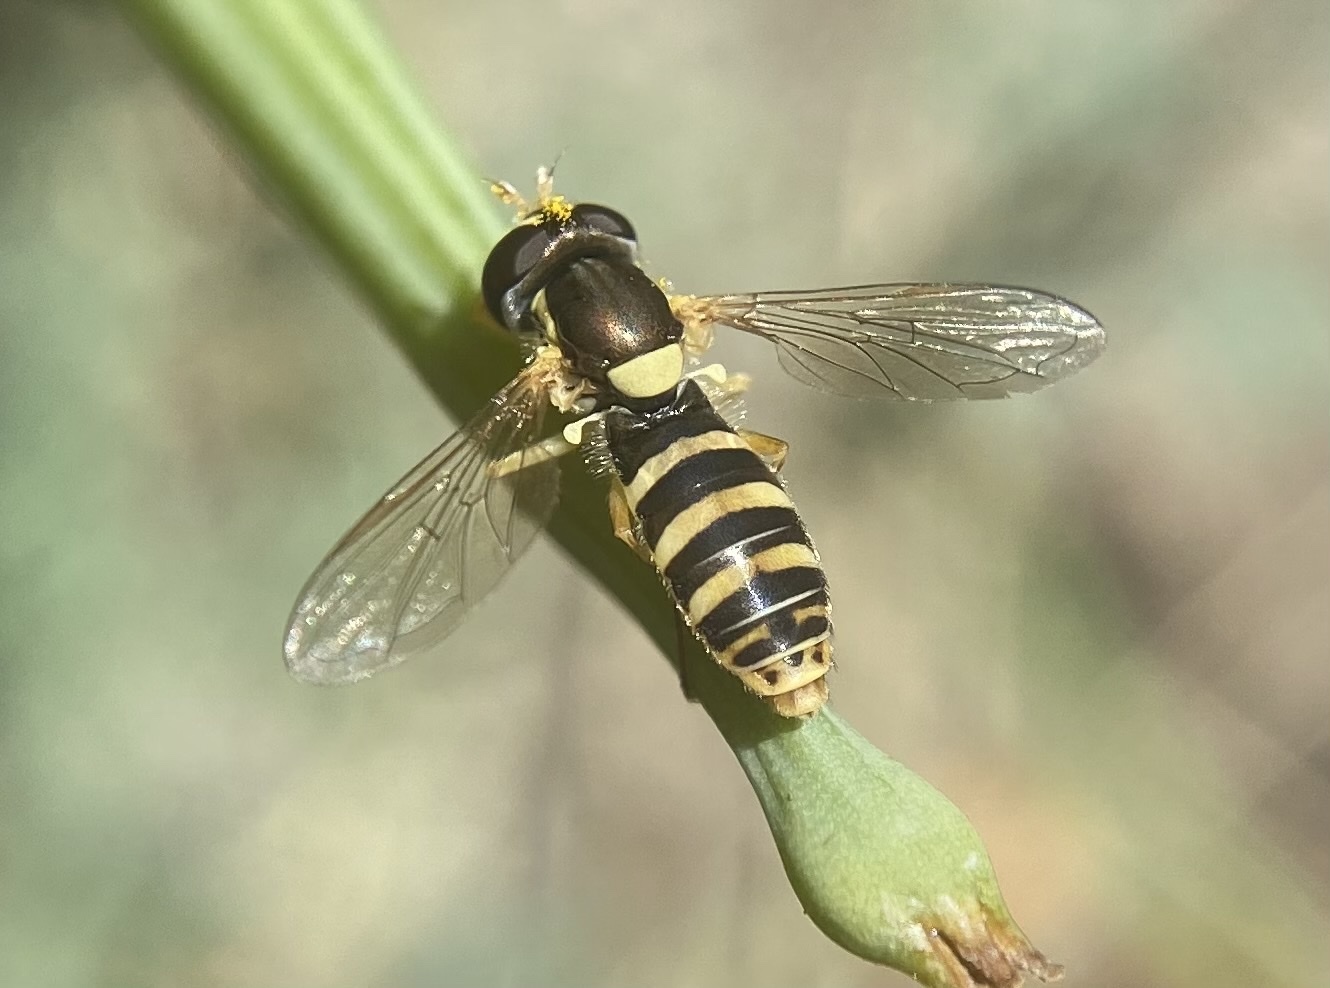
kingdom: Animalia
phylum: Arthropoda
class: Insecta
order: Diptera
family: Syrphidae
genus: Sphaerophoria
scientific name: Sphaerophoria sulphuripes
